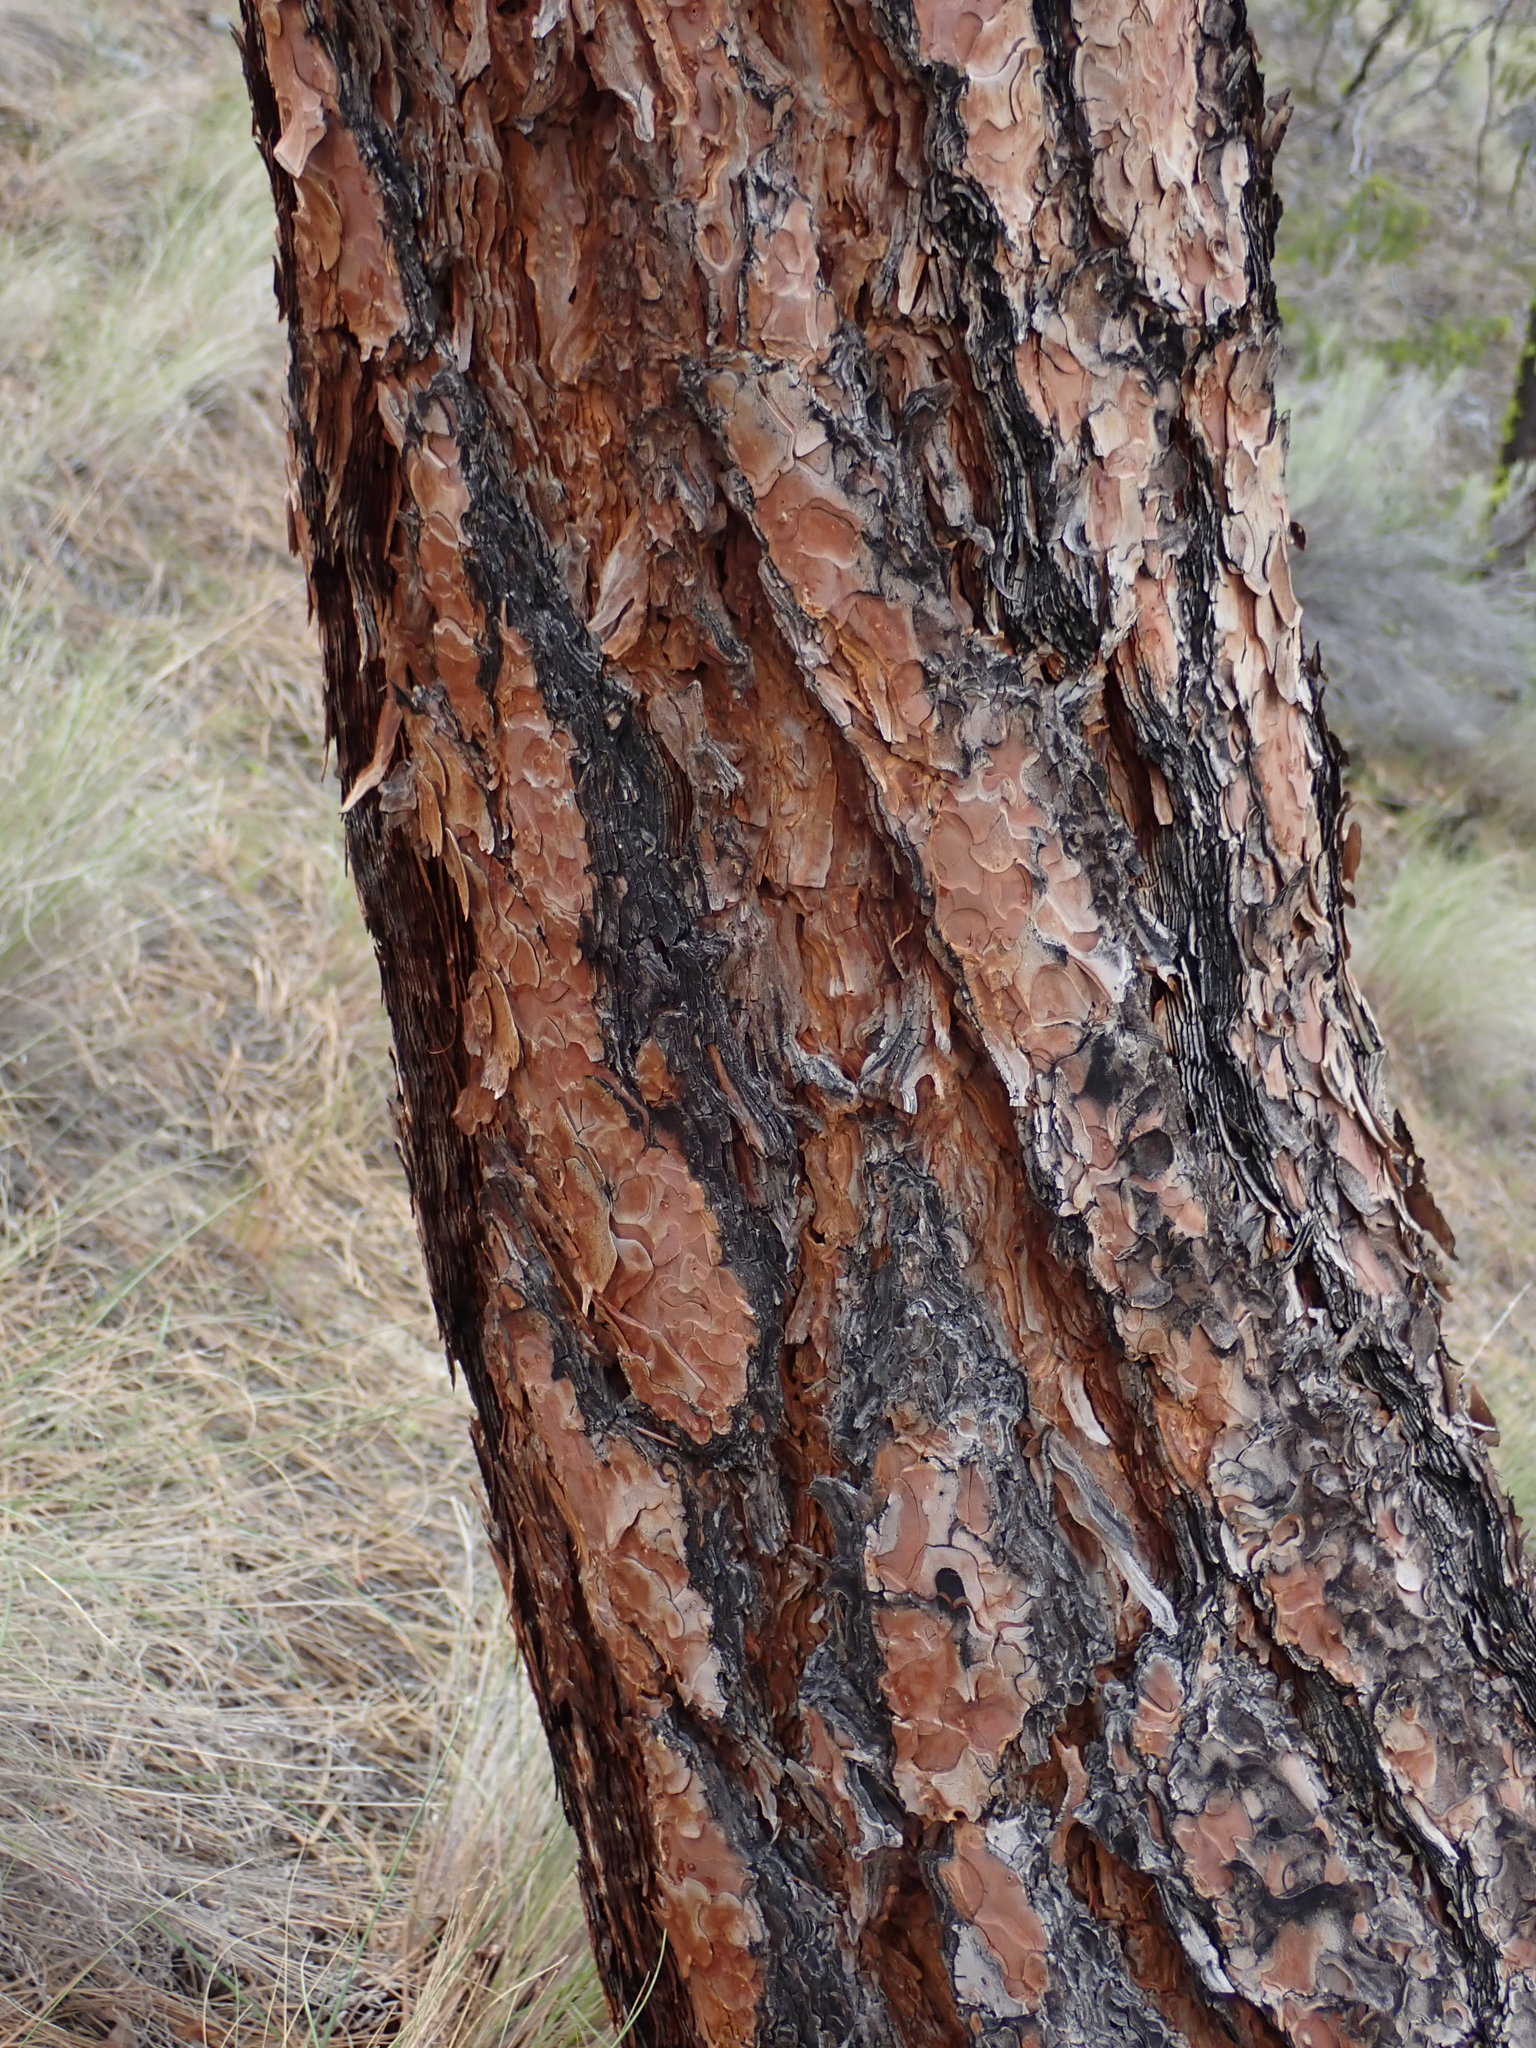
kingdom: Plantae
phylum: Tracheophyta
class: Pinopsida
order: Pinales
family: Pinaceae
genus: Pinus
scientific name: Pinus ponderosa
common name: Western yellow-pine
